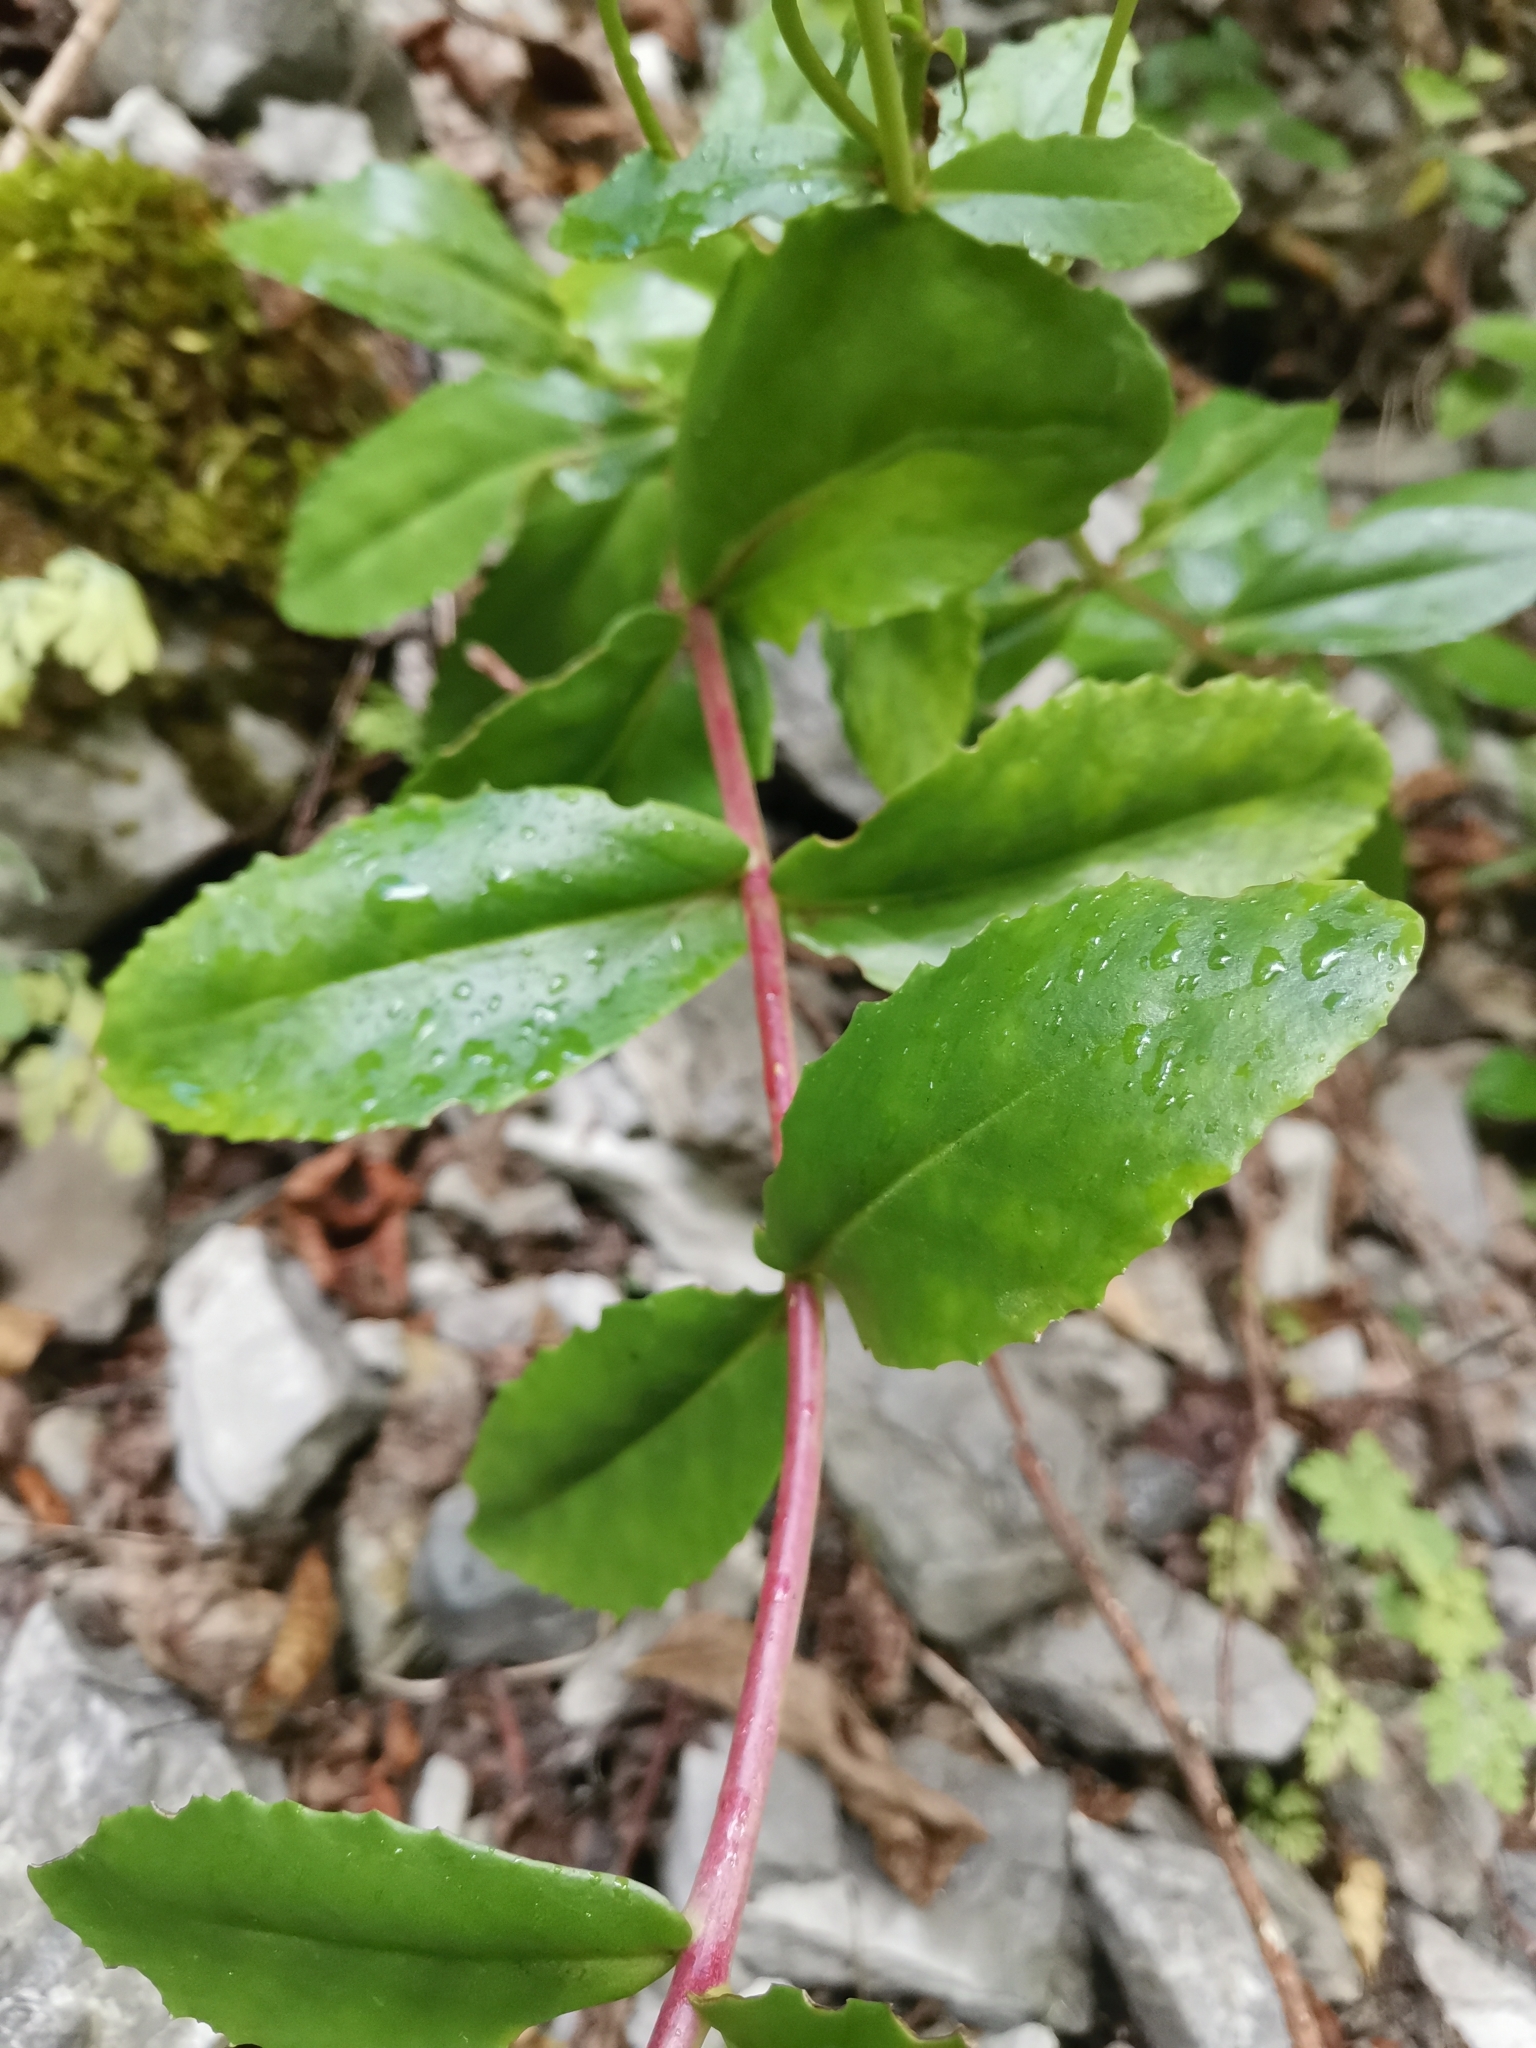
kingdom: Plantae
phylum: Tracheophyta
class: Magnoliopsida
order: Saxifragales
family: Crassulaceae
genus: Hylotelephium
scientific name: Hylotelephium maximum
